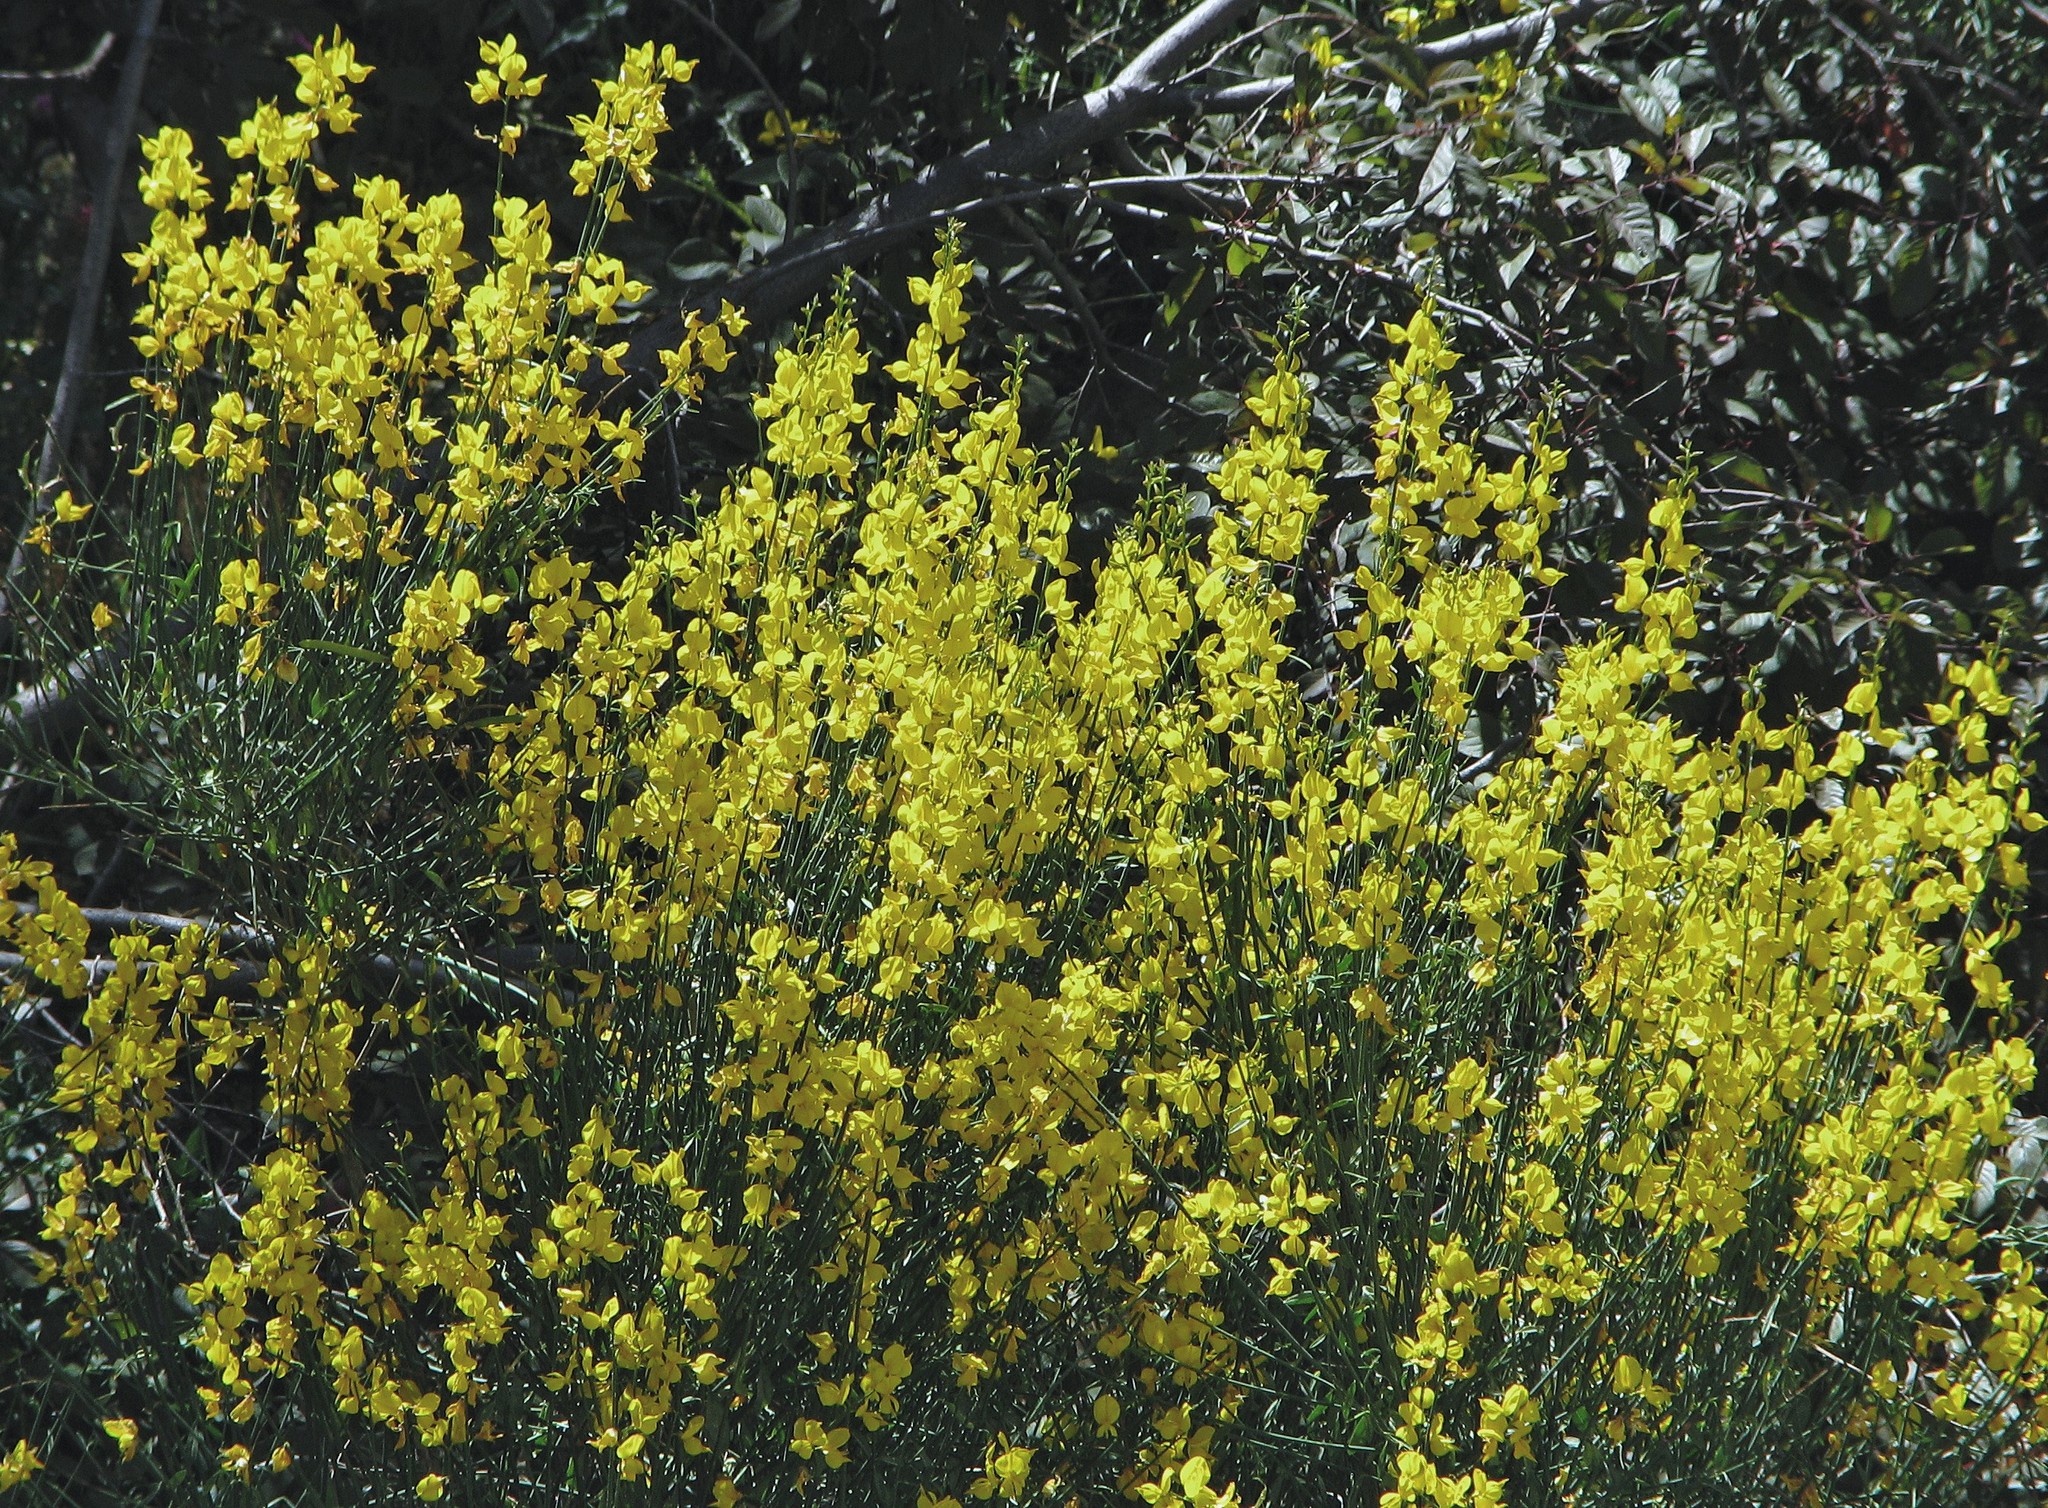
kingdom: Plantae
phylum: Tracheophyta
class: Magnoliopsida
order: Fabales
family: Fabaceae
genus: Spartium
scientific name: Spartium junceum
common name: Spanish broom
